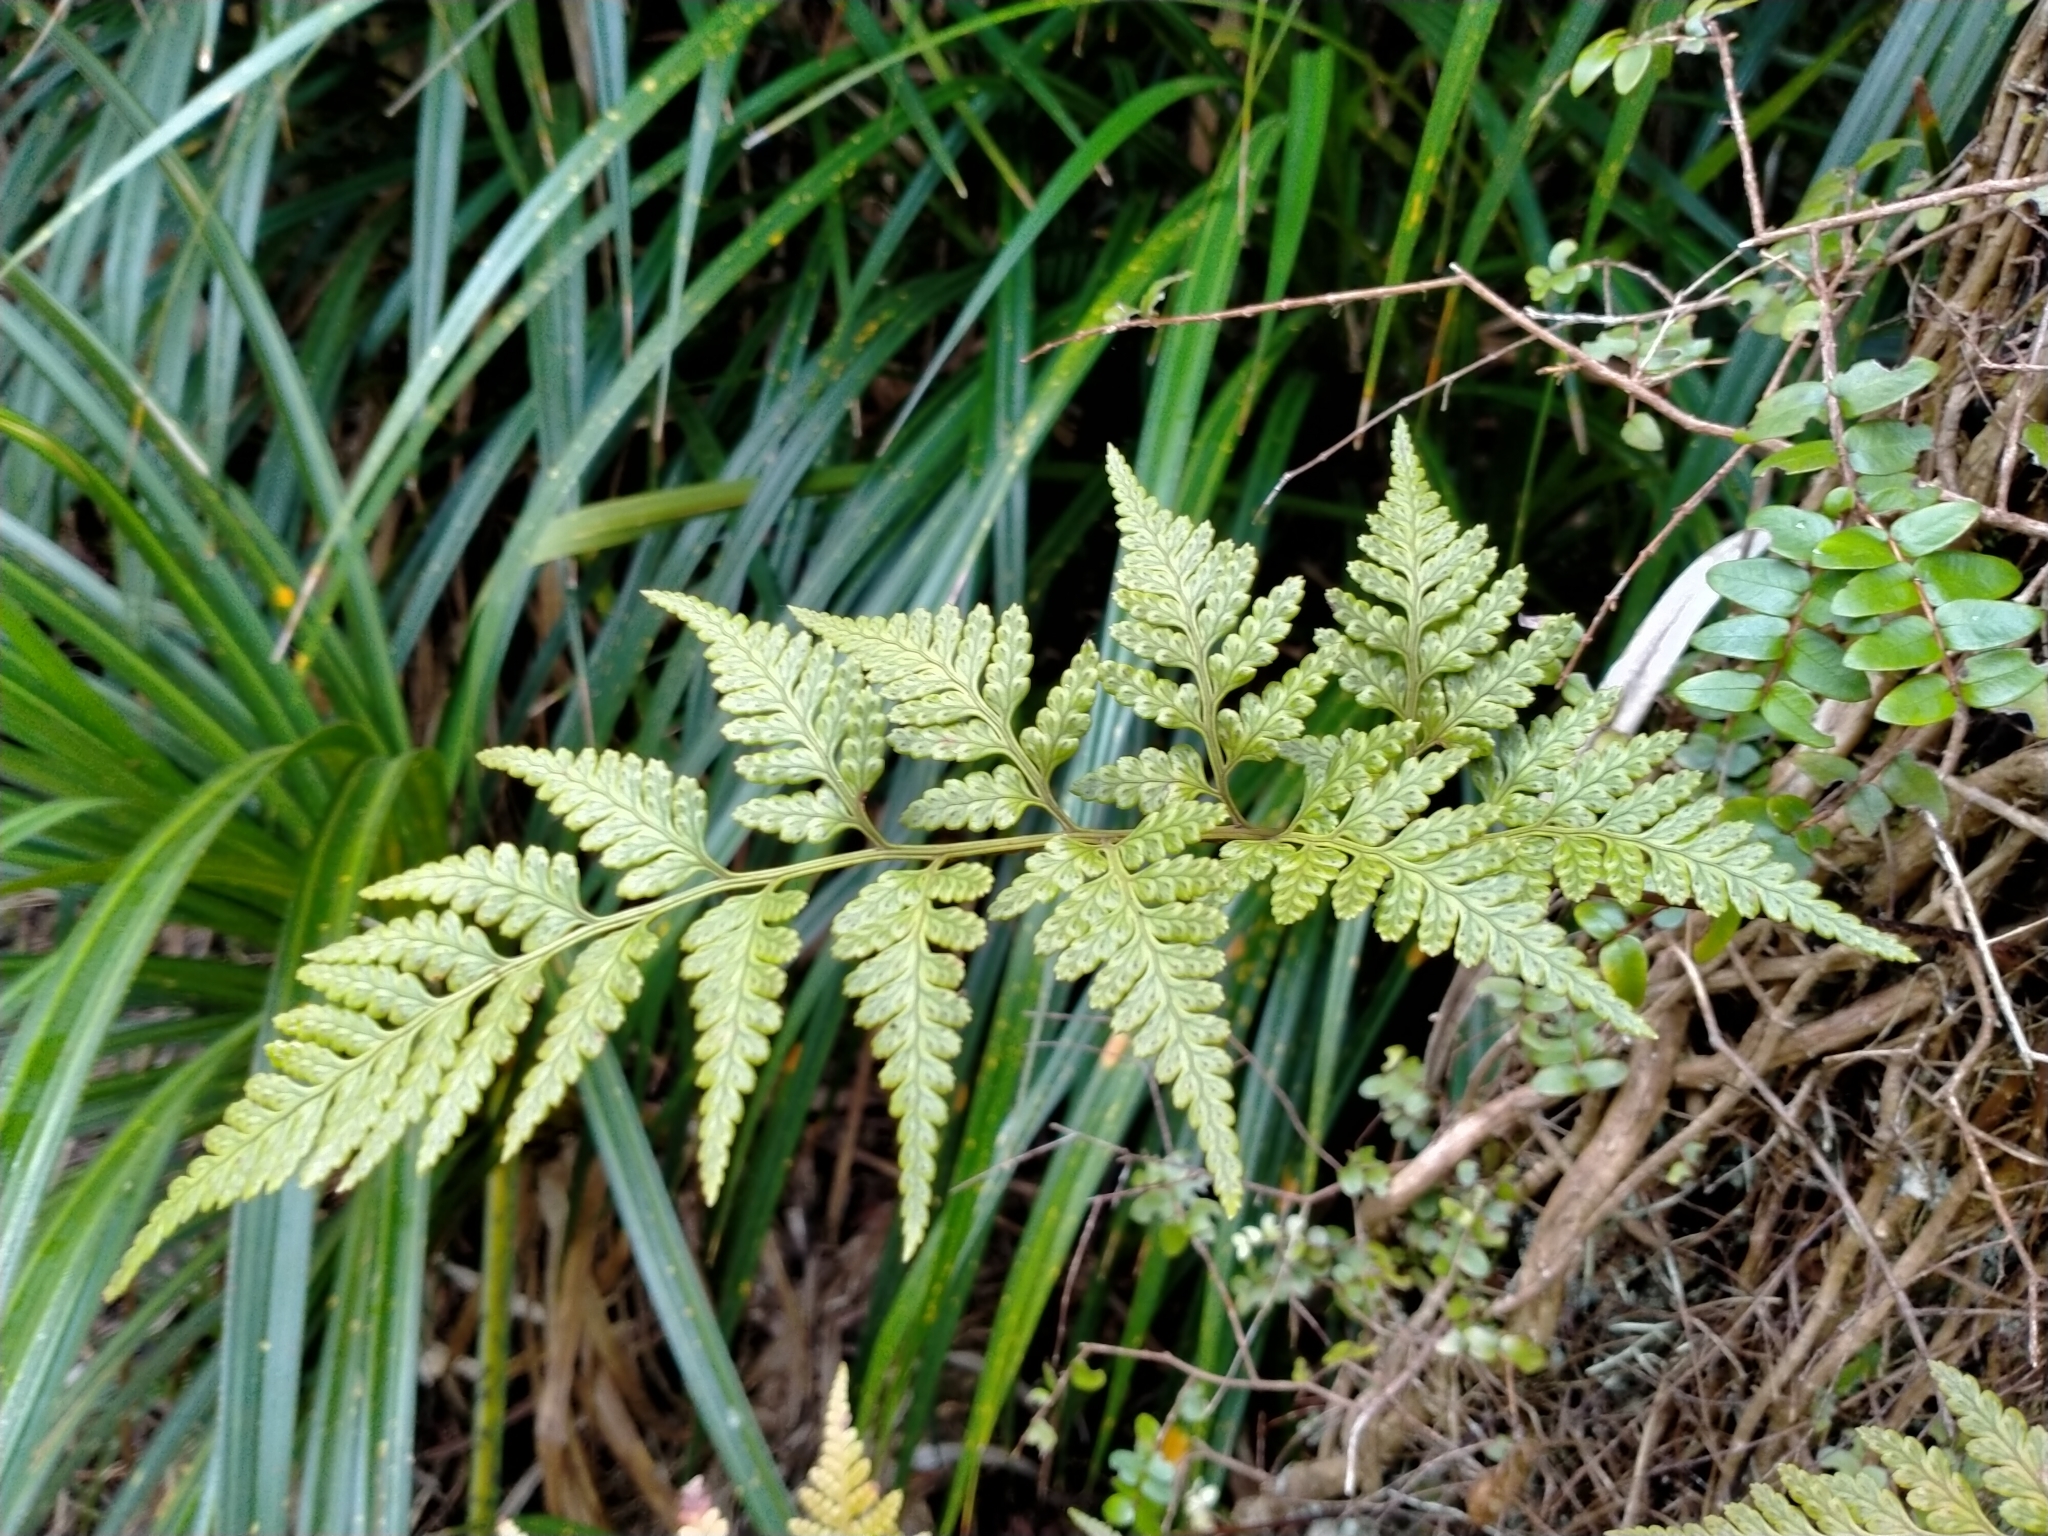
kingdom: Plantae
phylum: Tracheophyta
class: Polypodiopsida
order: Polypodiales
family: Dryopteridaceae
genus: Rumohra
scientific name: Rumohra adiantiformis
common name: Leather fern
